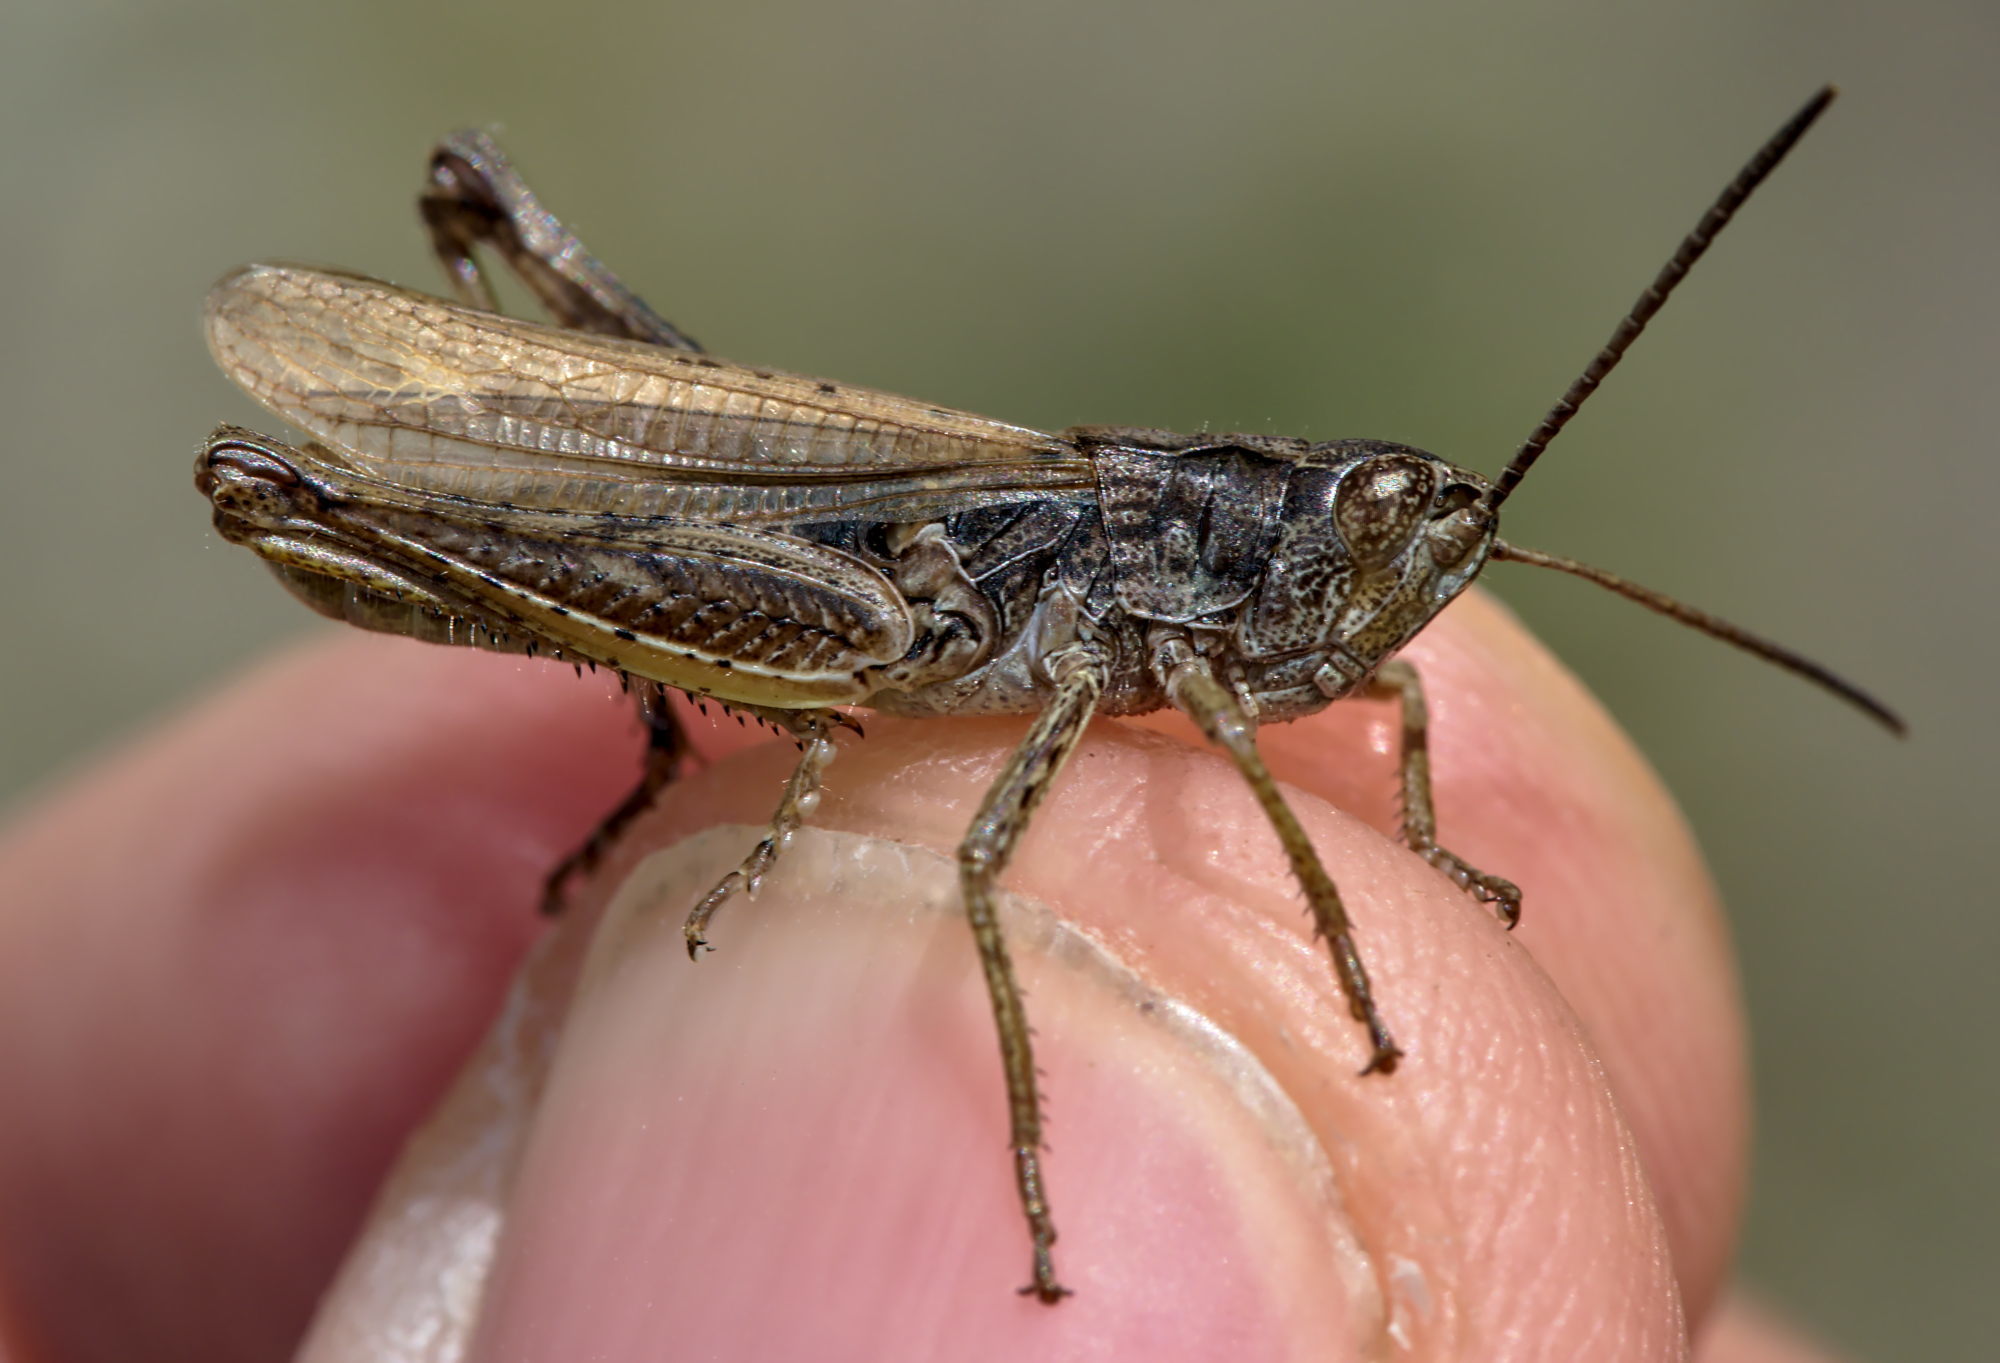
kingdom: Animalia
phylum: Arthropoda
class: Insecta
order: Orthoptera
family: Acrididae
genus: Chorthippus
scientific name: Chorthippus apricarius
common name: Upland field grasshopper
